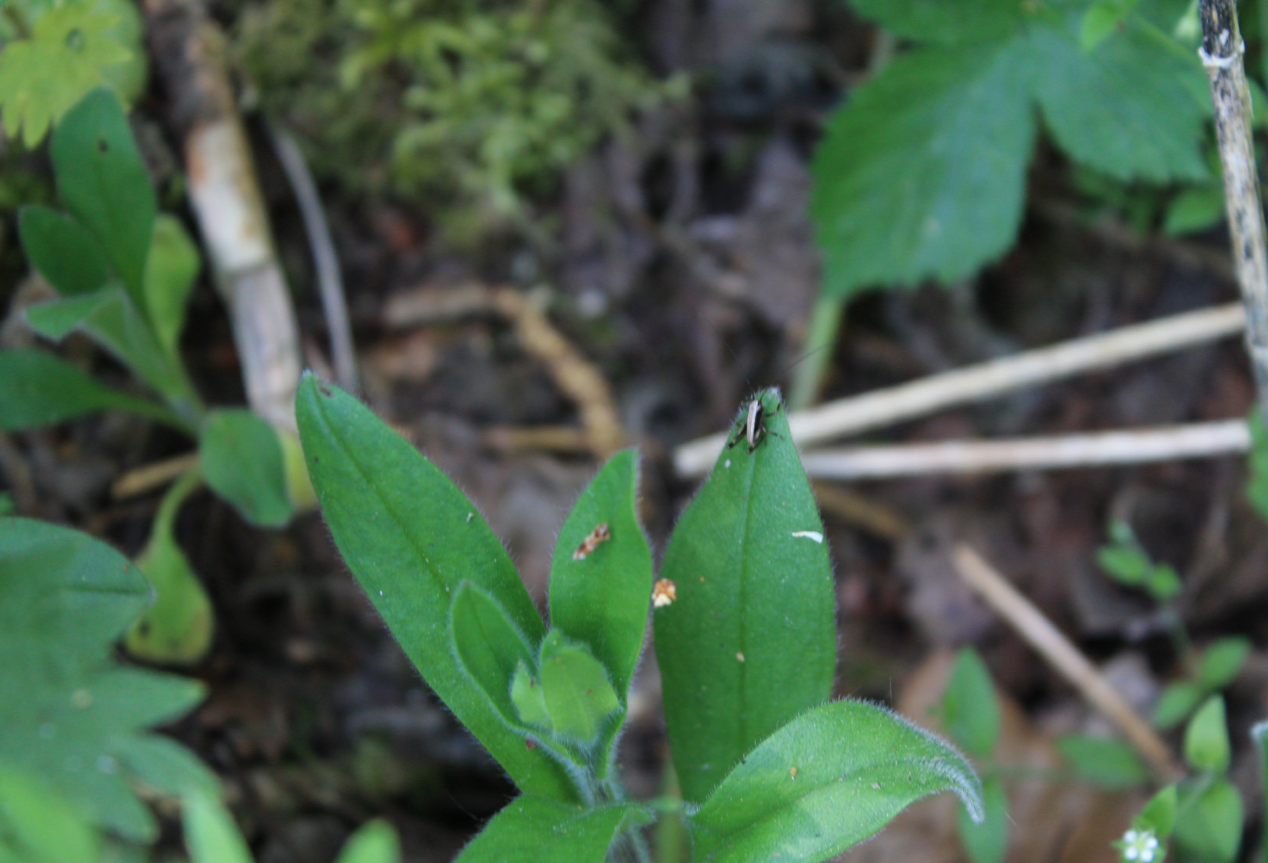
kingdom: Animalia
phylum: Arthropoda
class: Insecta
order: Orthoptera
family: Tettigoniidae
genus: Pholidoptera
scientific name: Pholidoptera griseoaptera
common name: Dark bush-cricket
